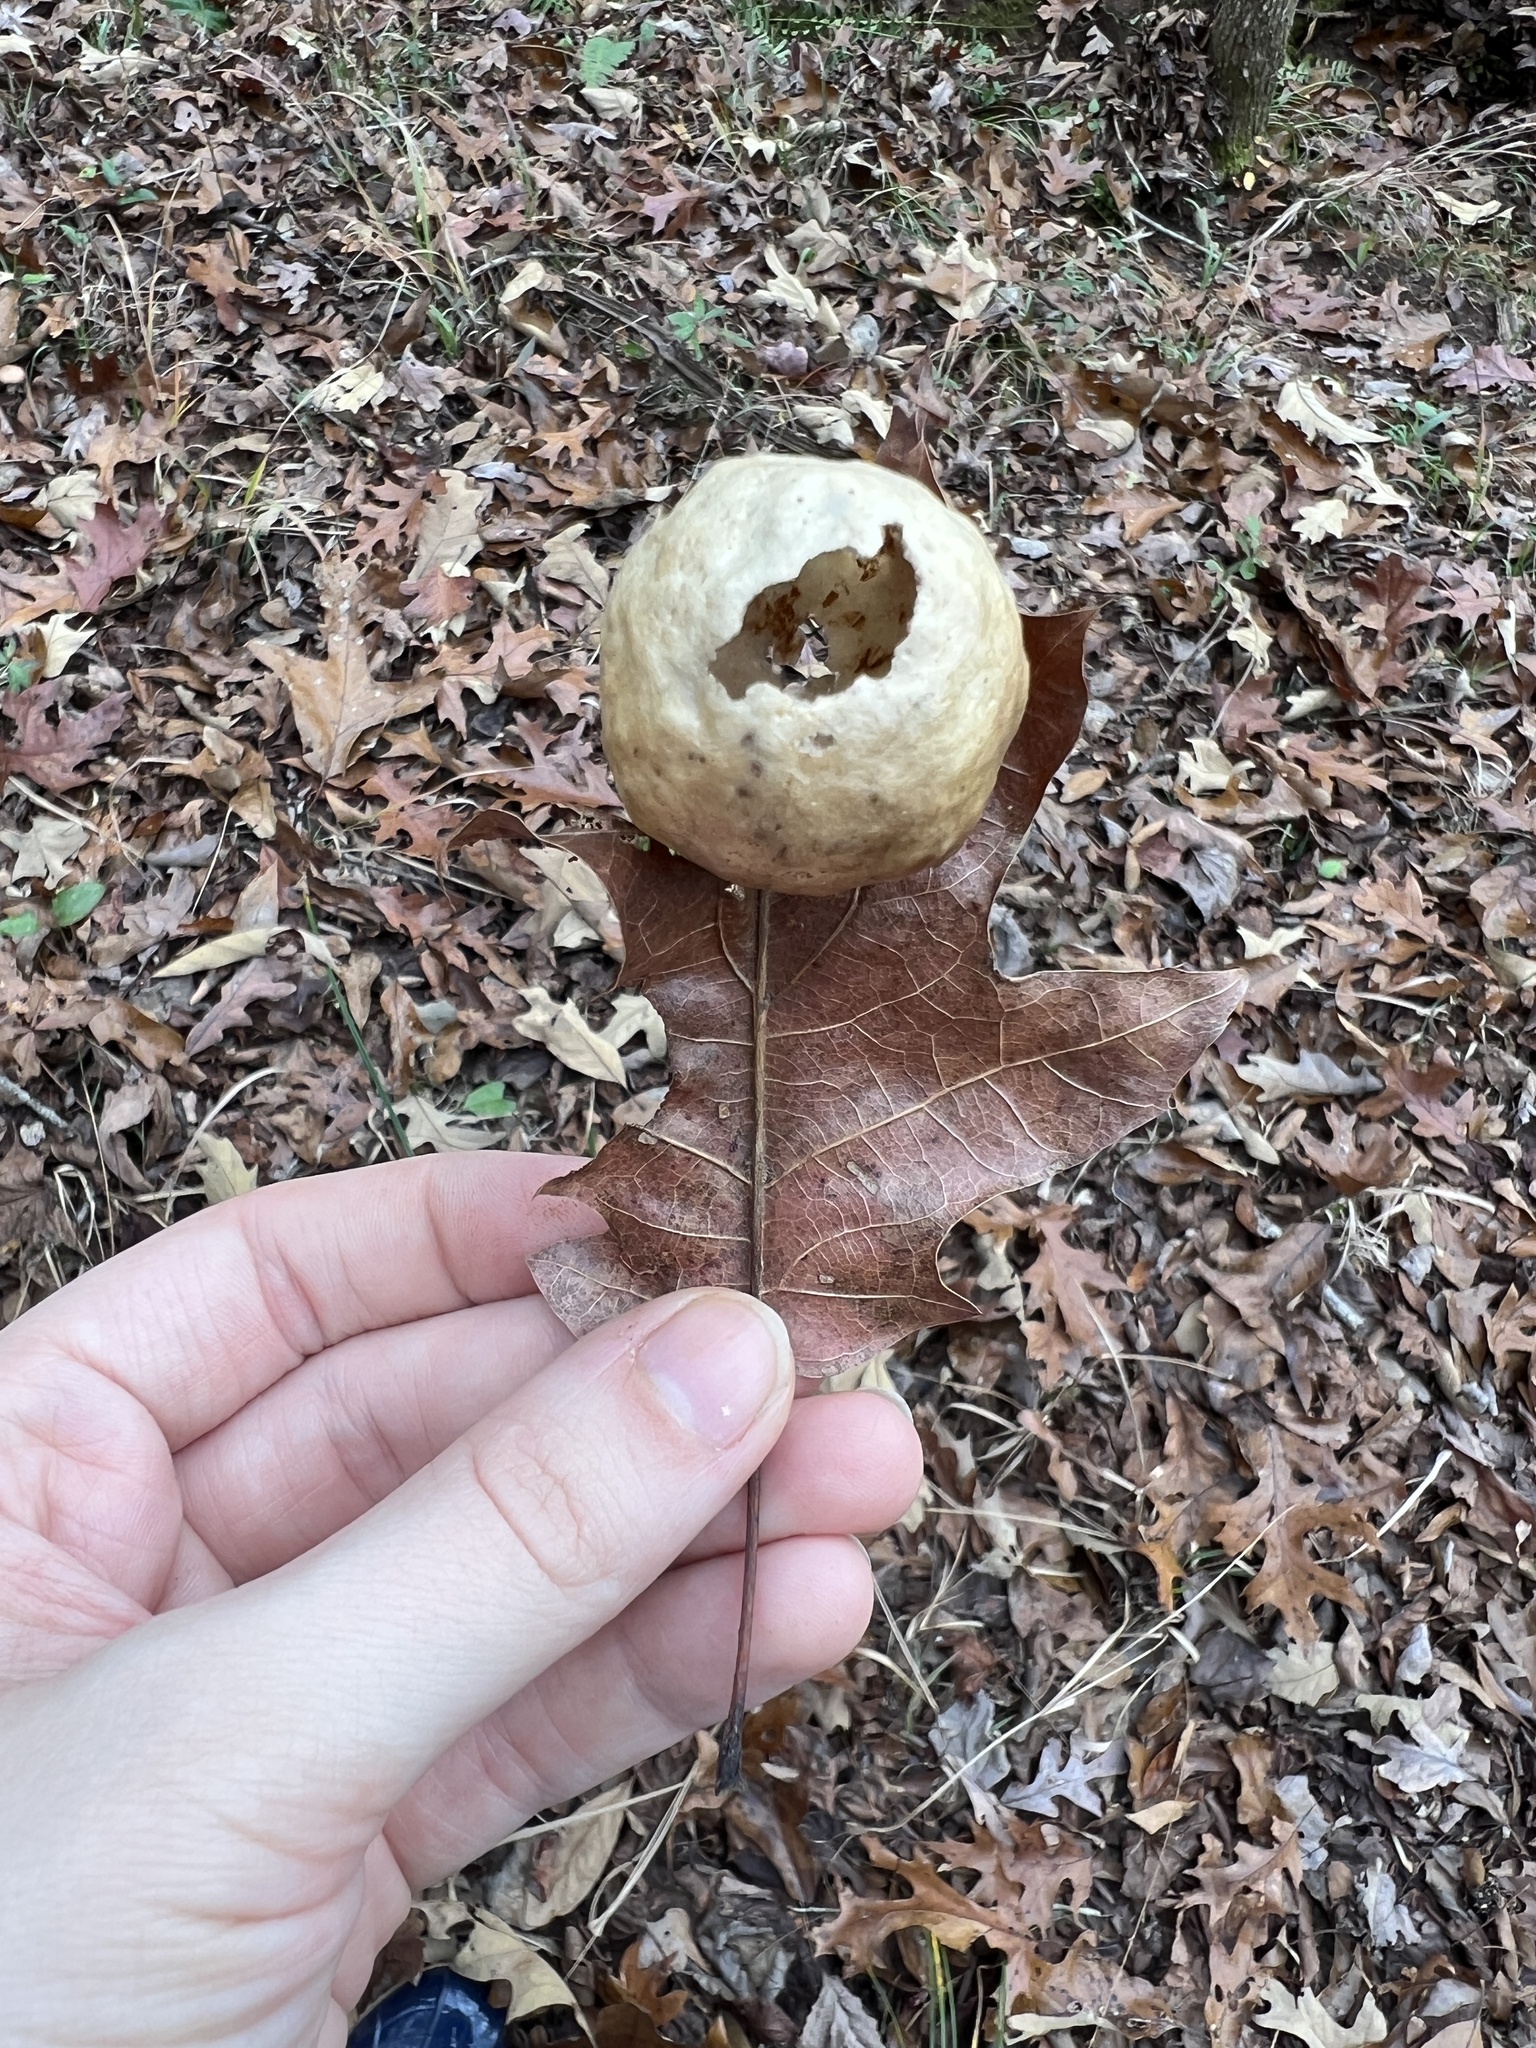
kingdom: Animalia
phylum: Arthropoda
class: Insecta
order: Hymenoptera
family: Cynipidae
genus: Amphibolips
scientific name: Amphibolips
